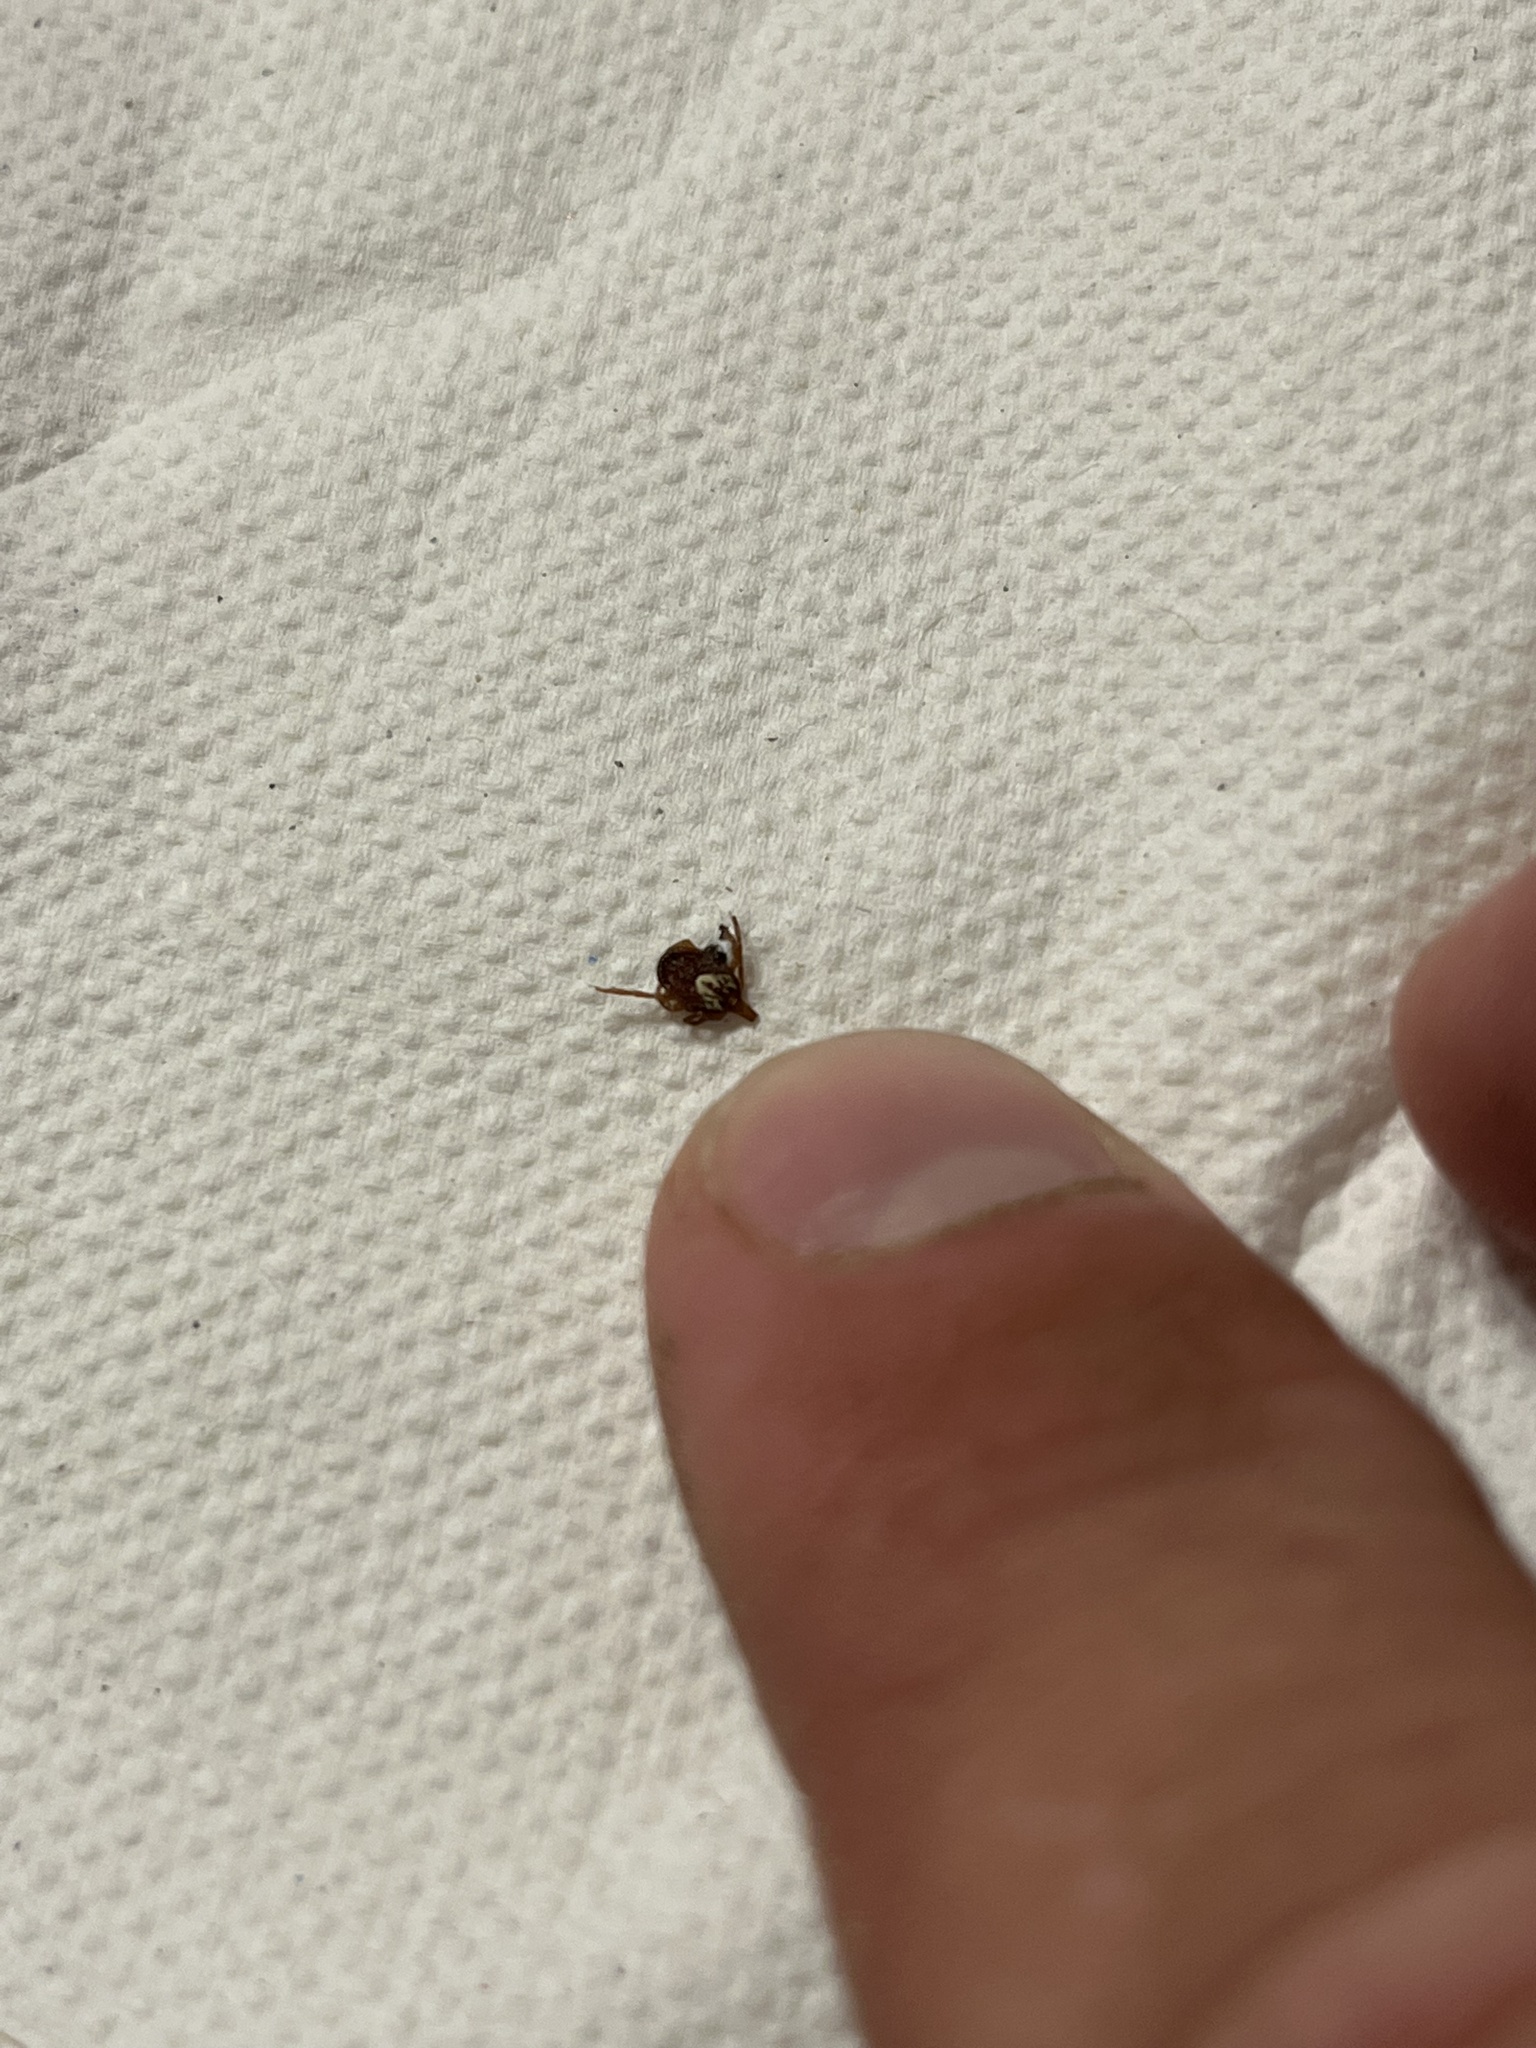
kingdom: Animalia
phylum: Arthropoda
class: Arachnida
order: Ixodida
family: Ixodidae
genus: Amblyomma
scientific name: Amblyomma maculatum
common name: Gulf coast tick
